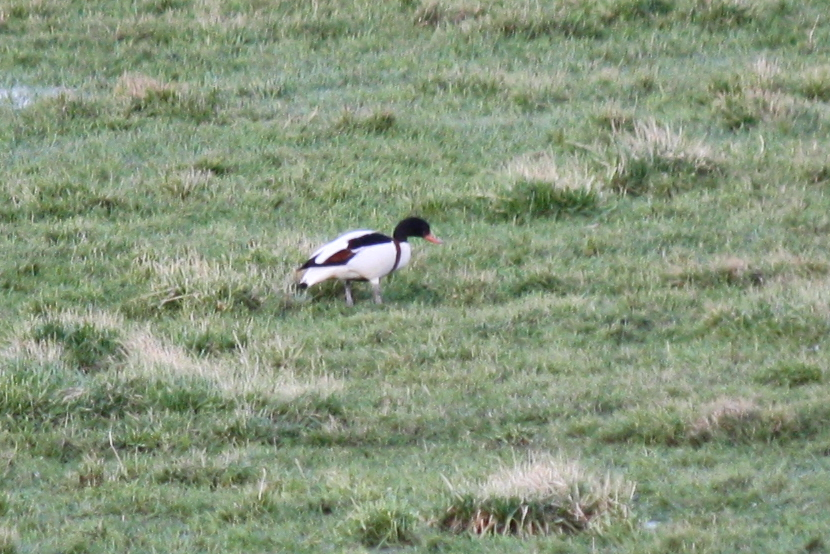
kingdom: Animalia
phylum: Chordata
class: Aves
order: Anseriformes
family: Anatidae
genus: Tadorna
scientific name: Tadorna tadorna
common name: Common shelduck
